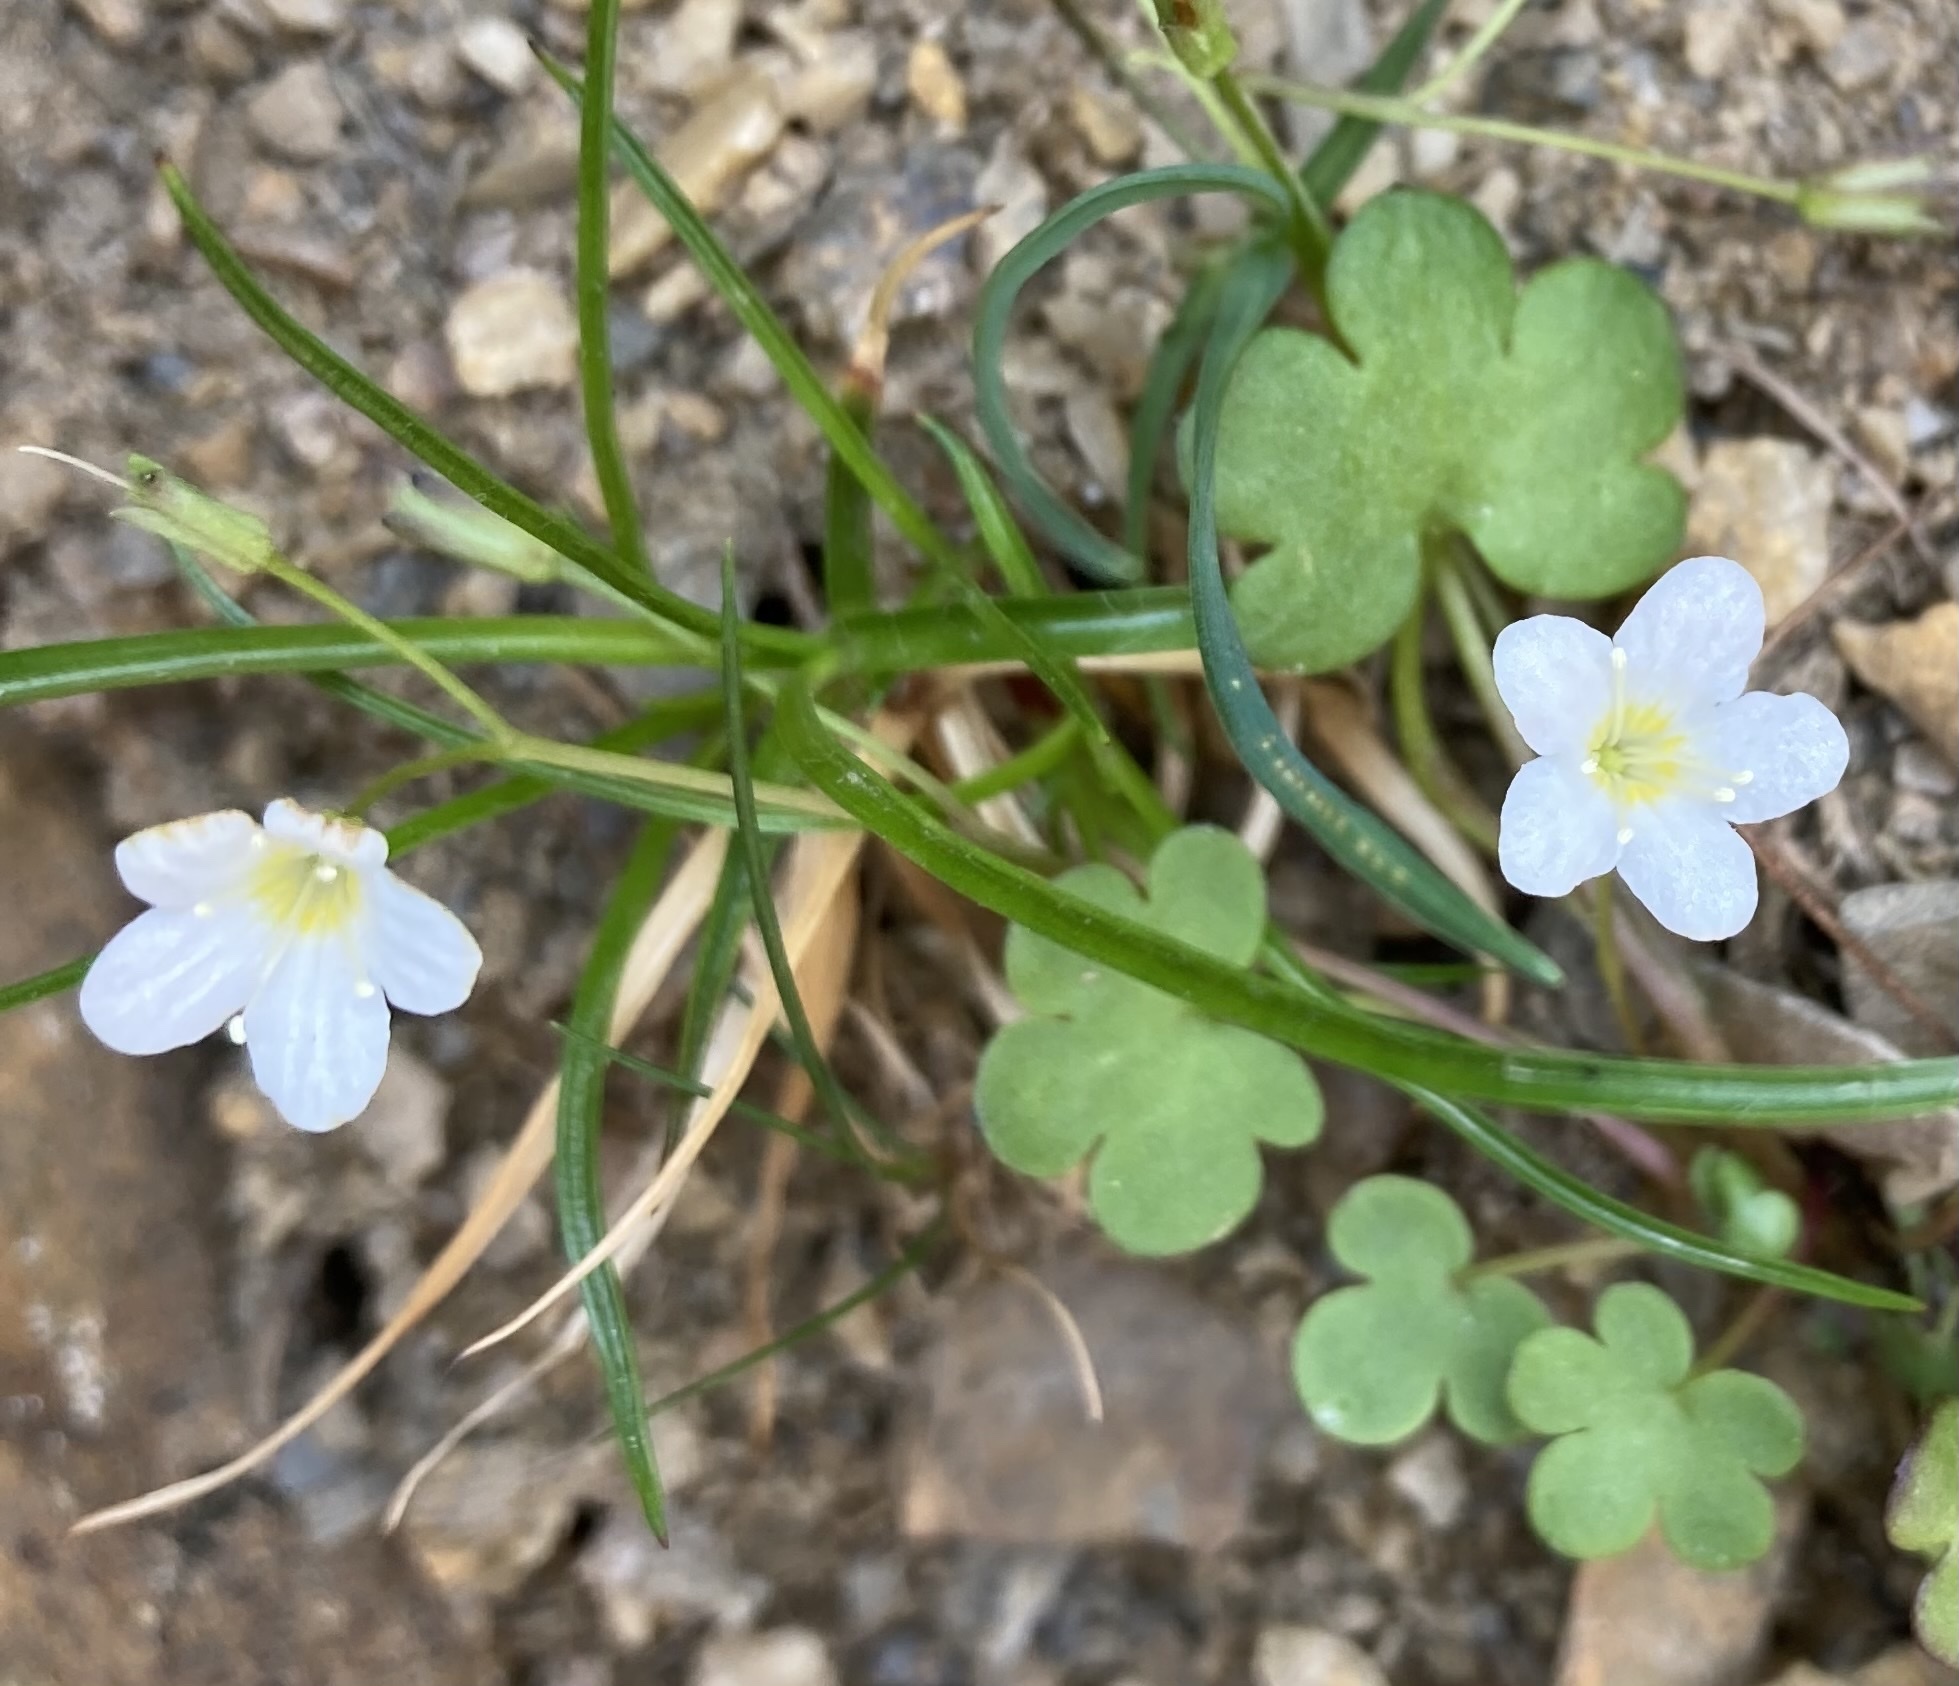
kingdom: Plantae
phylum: Tracheophyta
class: Magnoliopsida
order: Boraginales
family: Hydrophyllaceae
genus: Romanzoffia
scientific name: Romanzoffia sitchensis
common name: Sitka mistmaid
